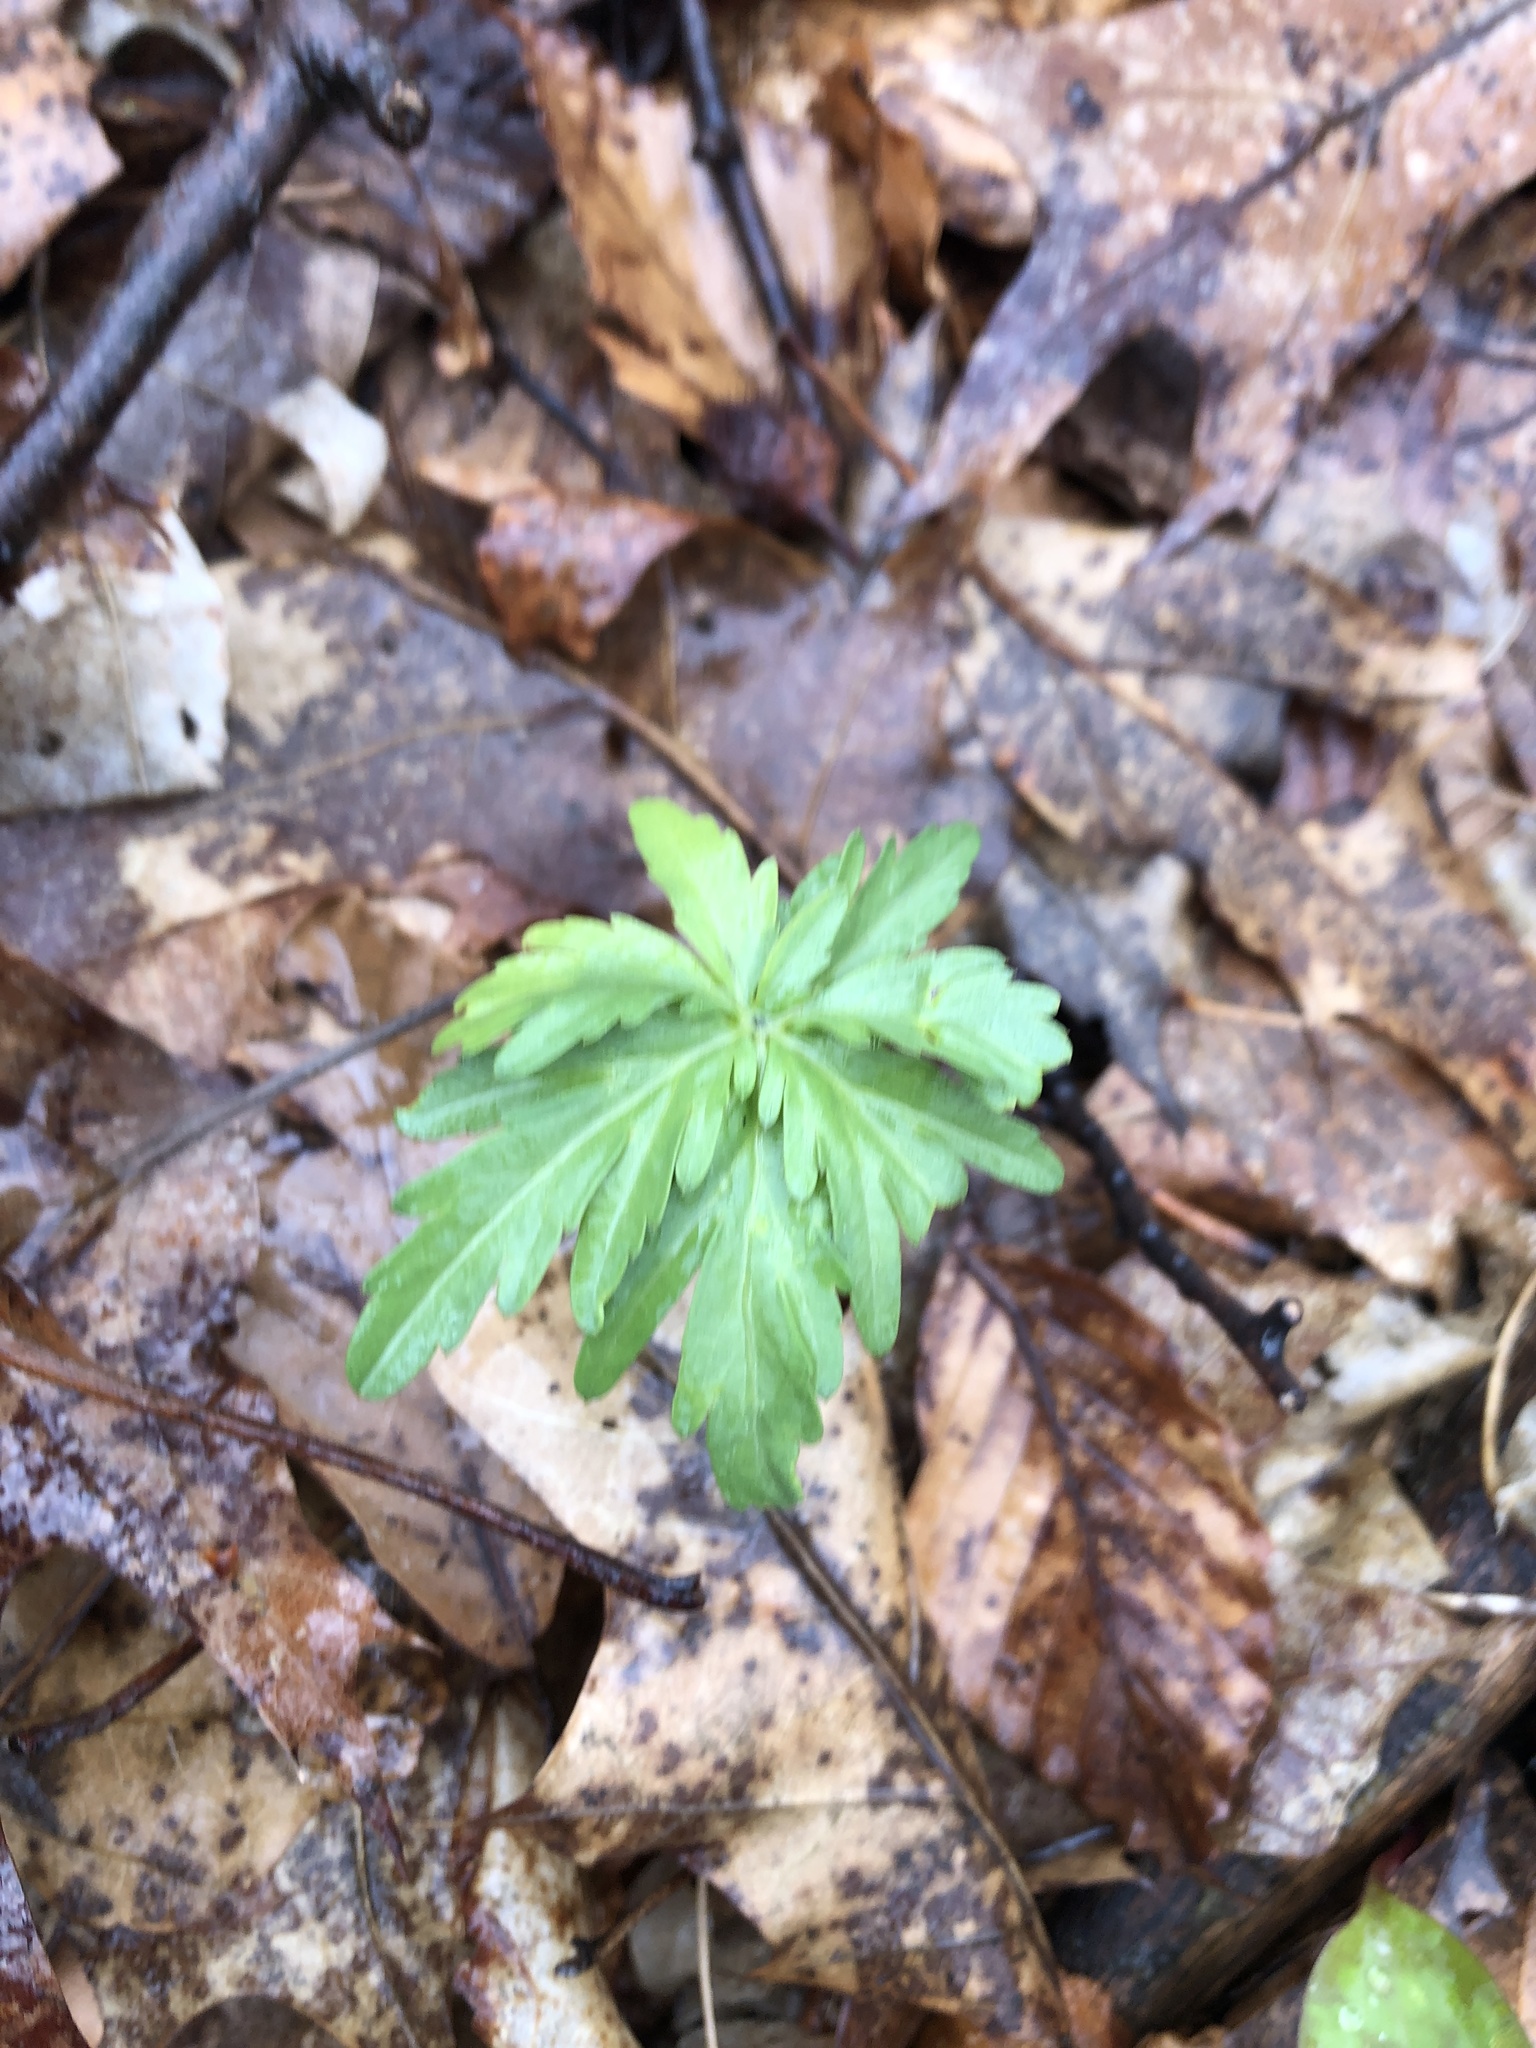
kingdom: Plantae
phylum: Tracheophyta
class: Magnoliopsida
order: Brassicales
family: Brassicaceae
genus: Cardamine
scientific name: Cardamine concatenata
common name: Cut-leaf toothcup
